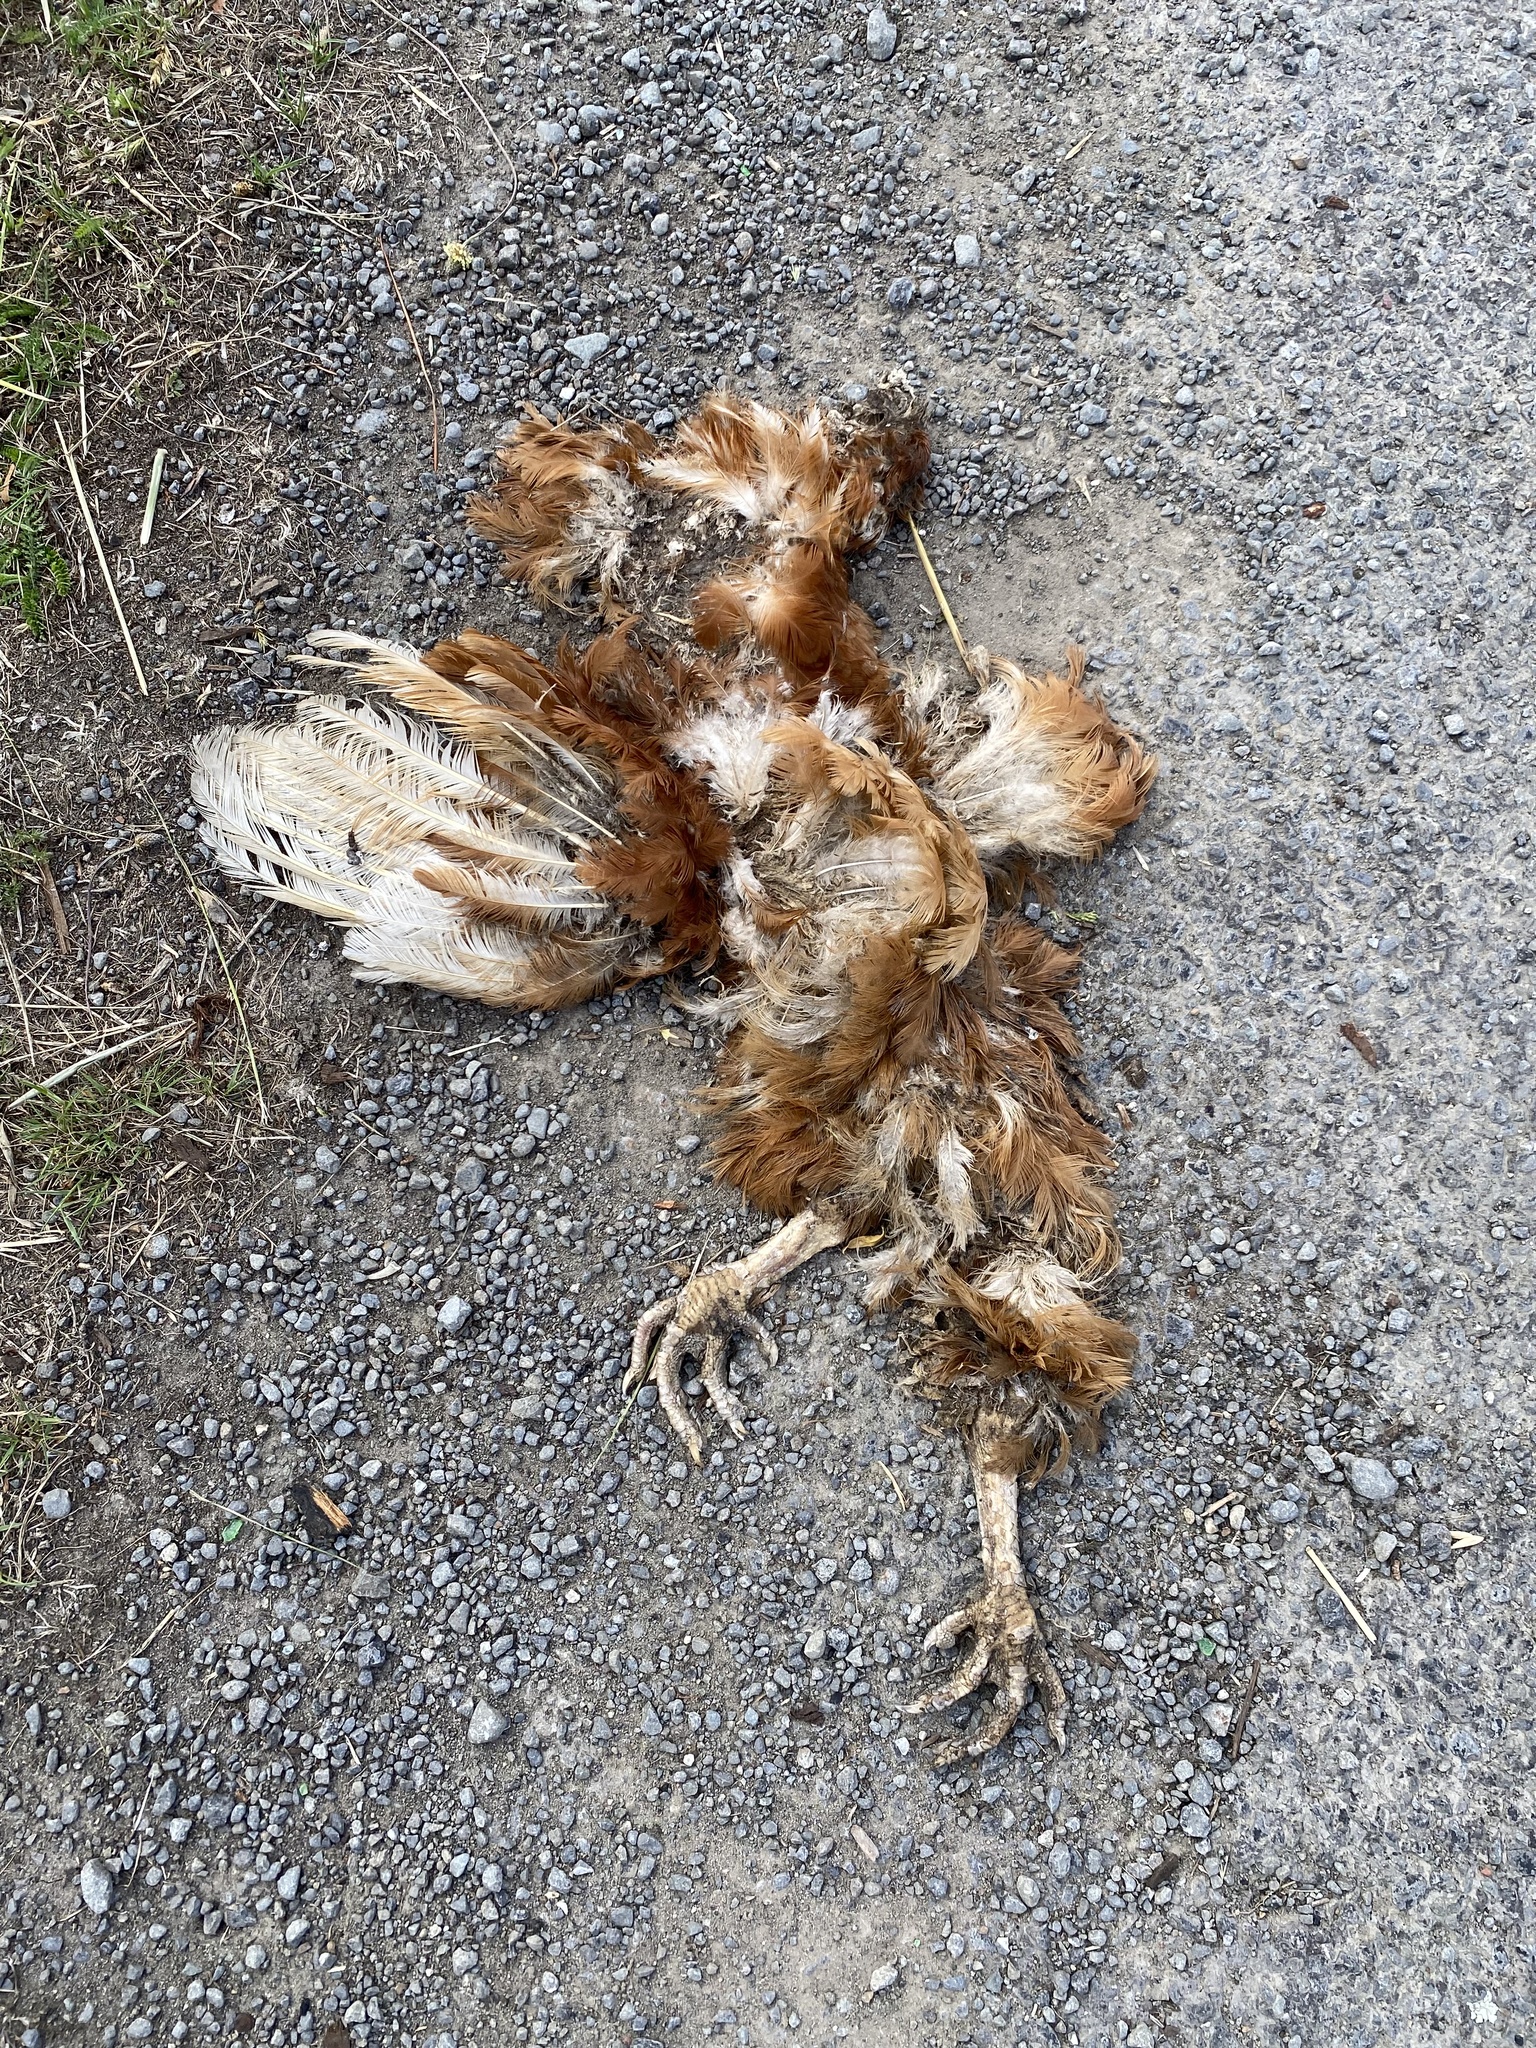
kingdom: Animalia
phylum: Chordata
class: Aves
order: Galliformes
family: Phasianidae
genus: Gallus
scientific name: Gallus gallus
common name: Red junglefowl
